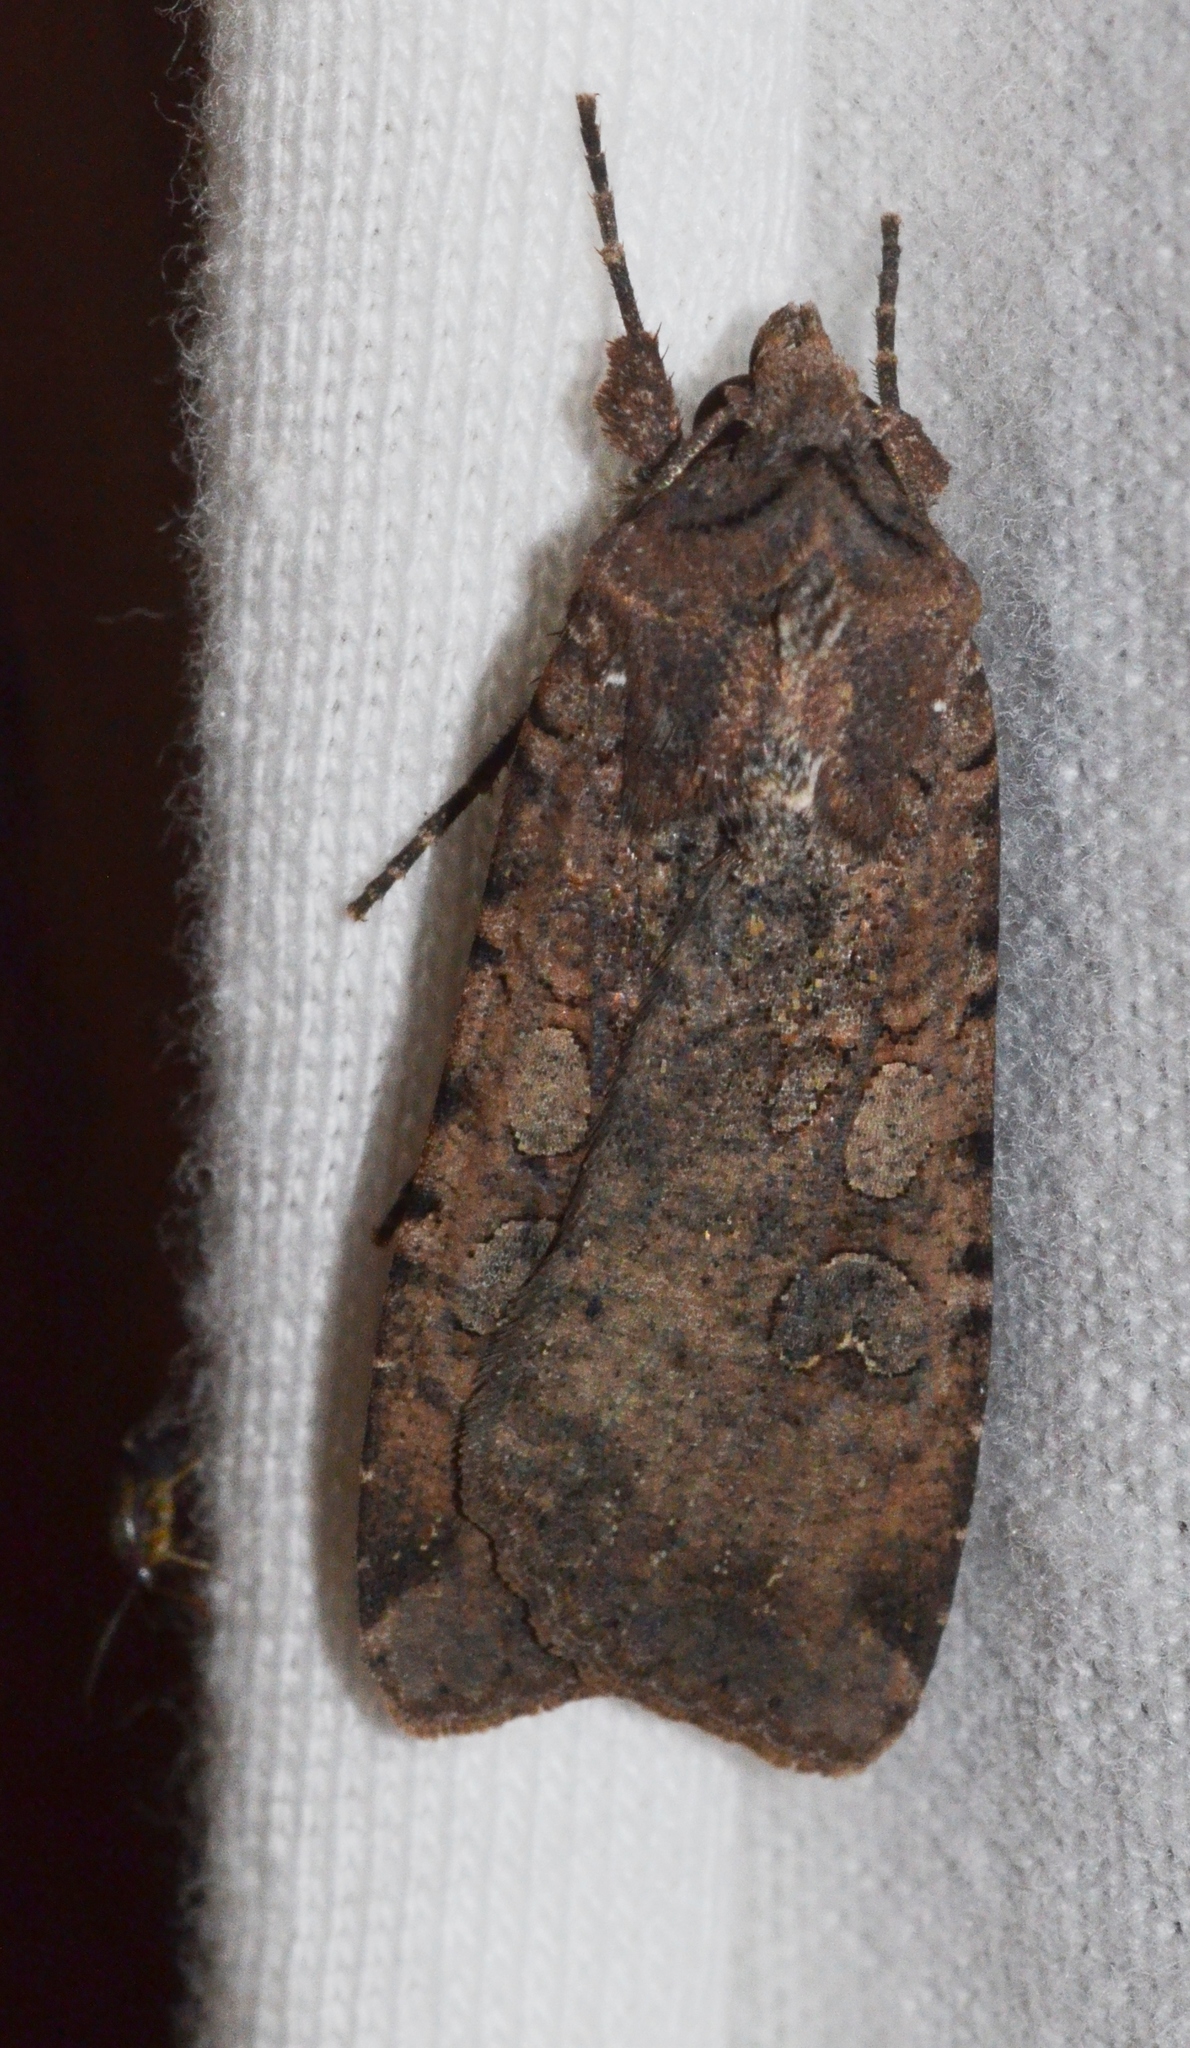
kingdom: Animalia
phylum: Arthropoda
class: Insecta
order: Lepidoptera
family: Noctuidae
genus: Peridroma
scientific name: Peridroma saucia
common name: Pearly underwing
